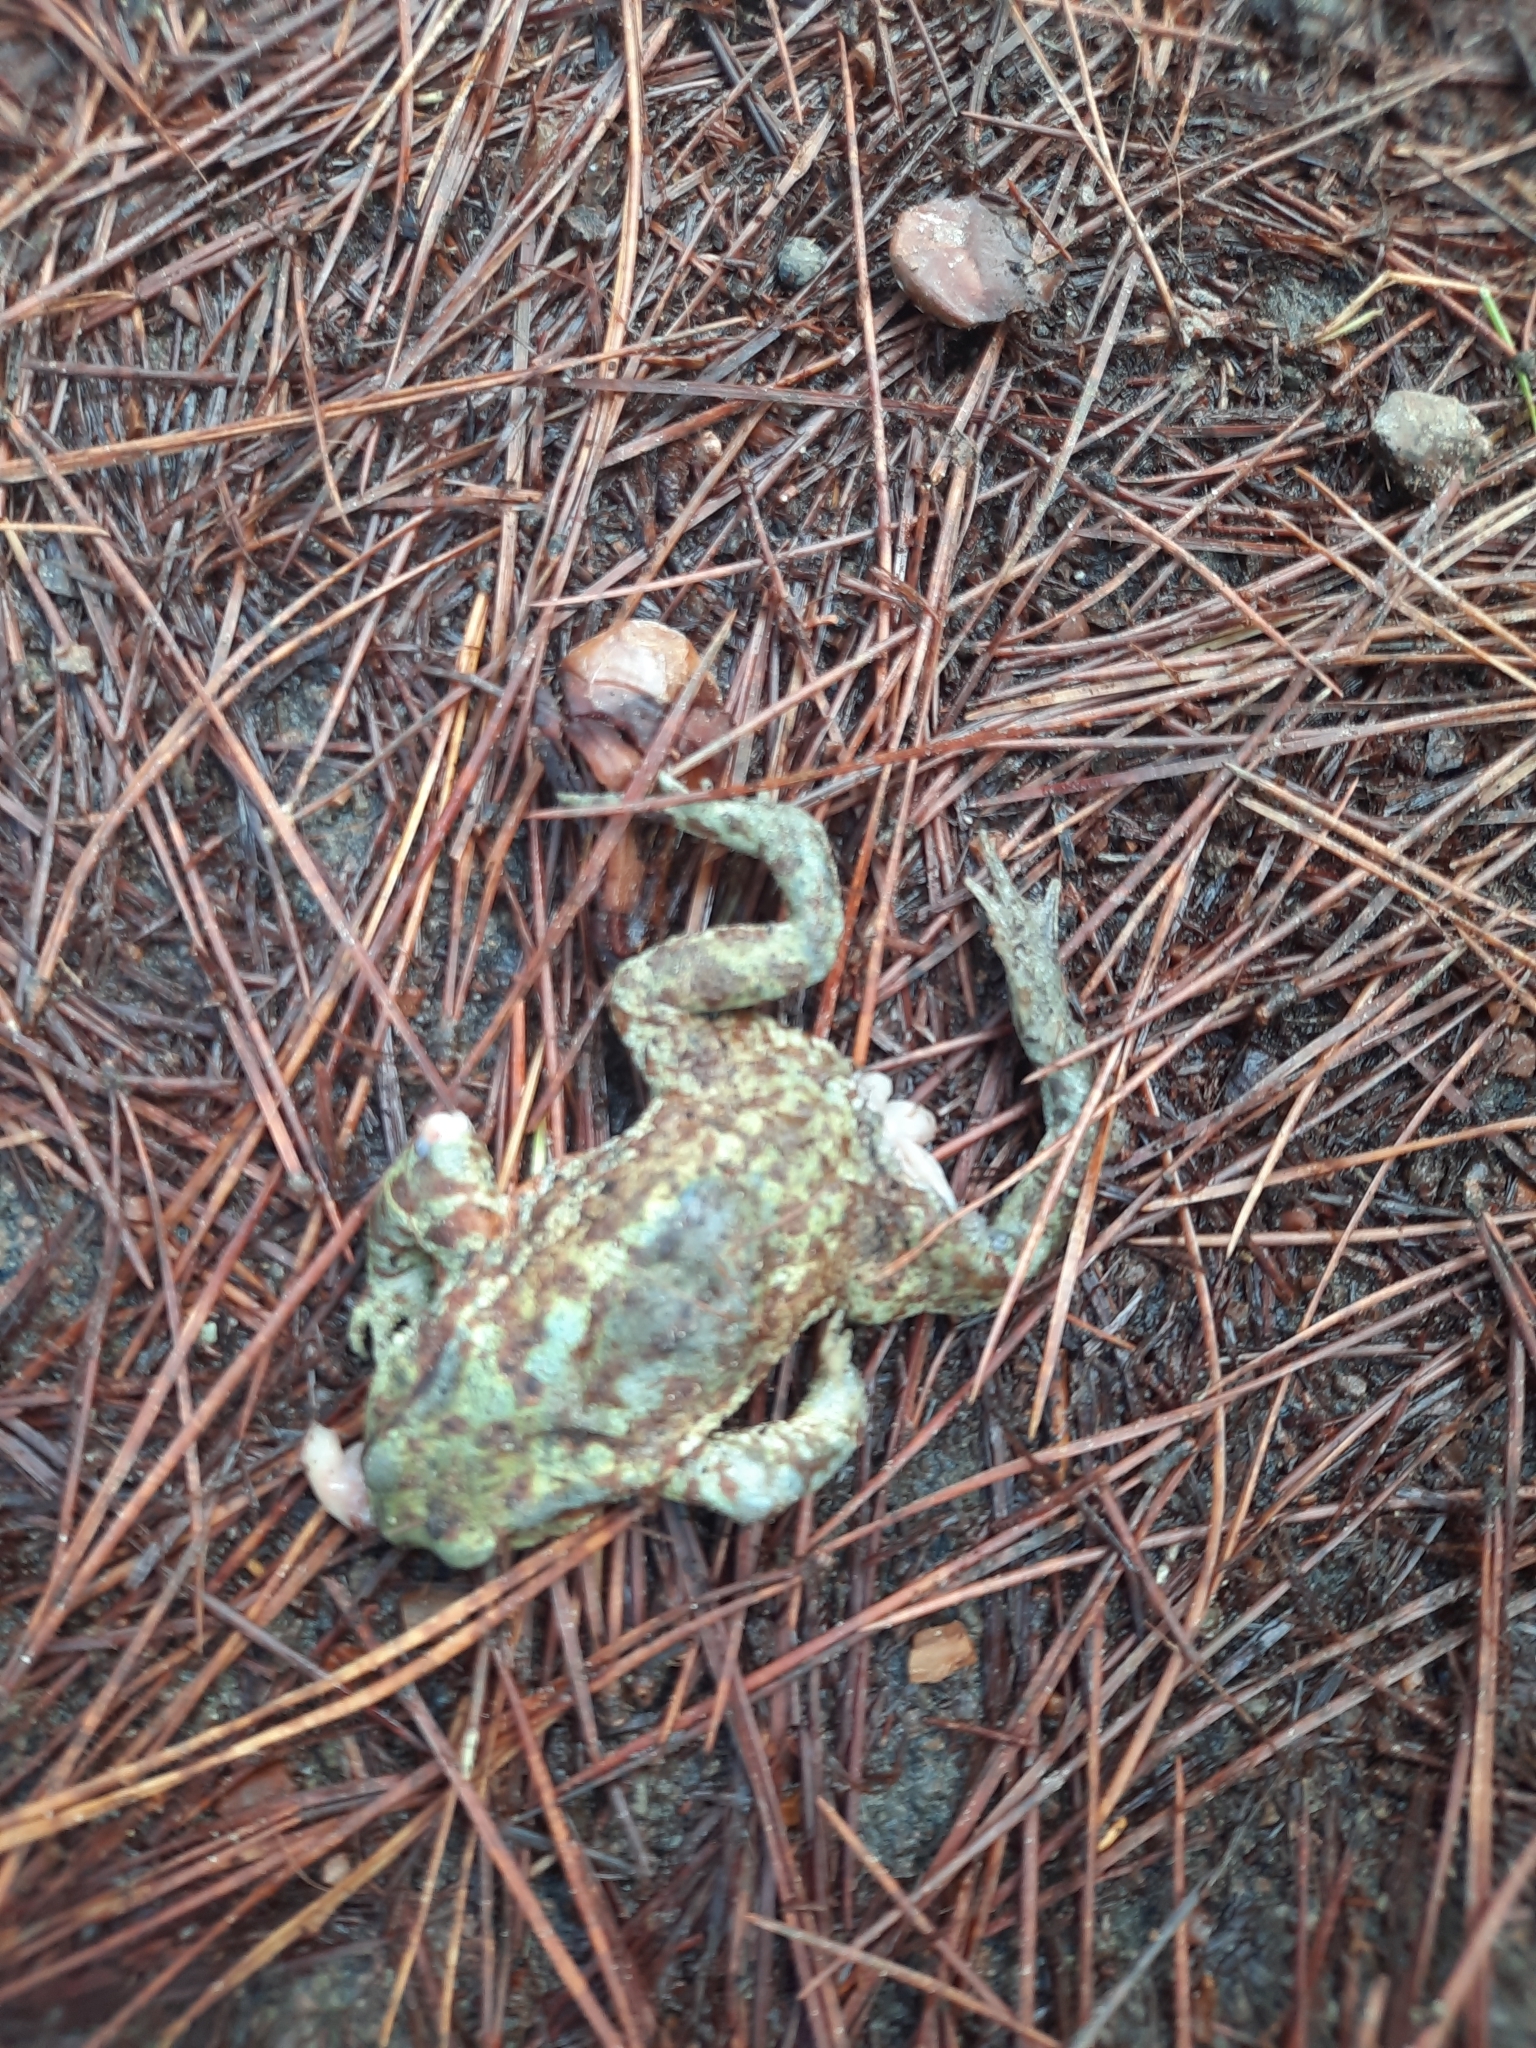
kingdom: Animalia
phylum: Chordata
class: Amphibia
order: Anura
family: Bufonidae
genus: Bufo
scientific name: Bufo bufo
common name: Common toad
